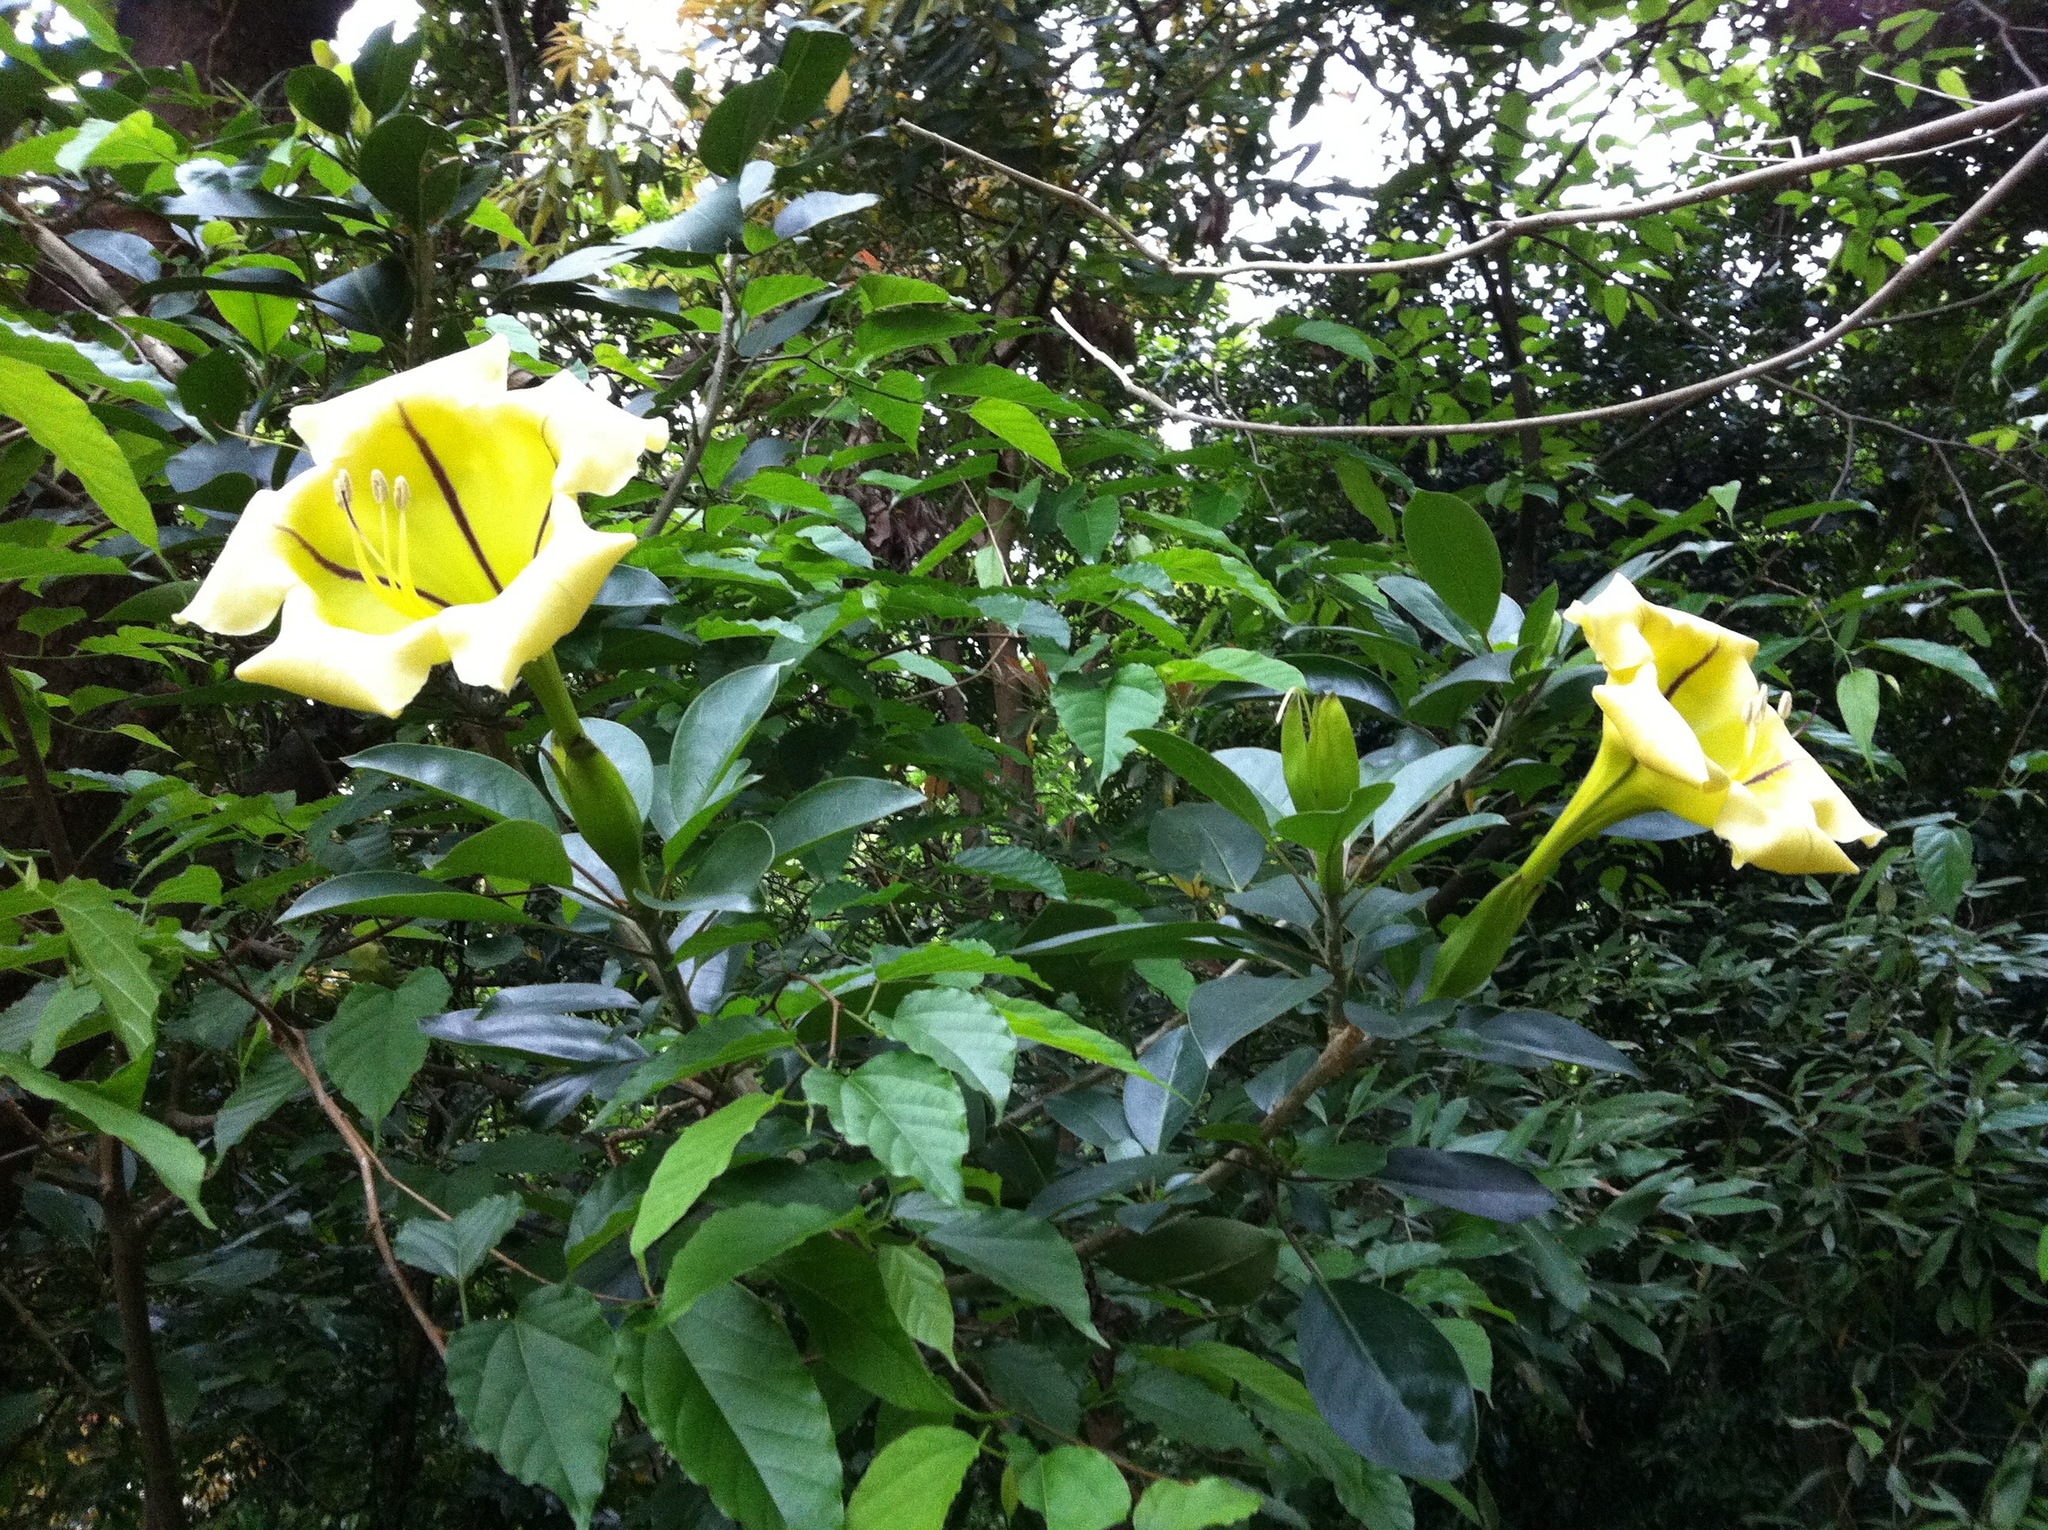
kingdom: Plantae
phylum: Tracheophyta
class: Magnoliopsida
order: Solanales
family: Solanaceae
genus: Solandra
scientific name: Solandra maxima
